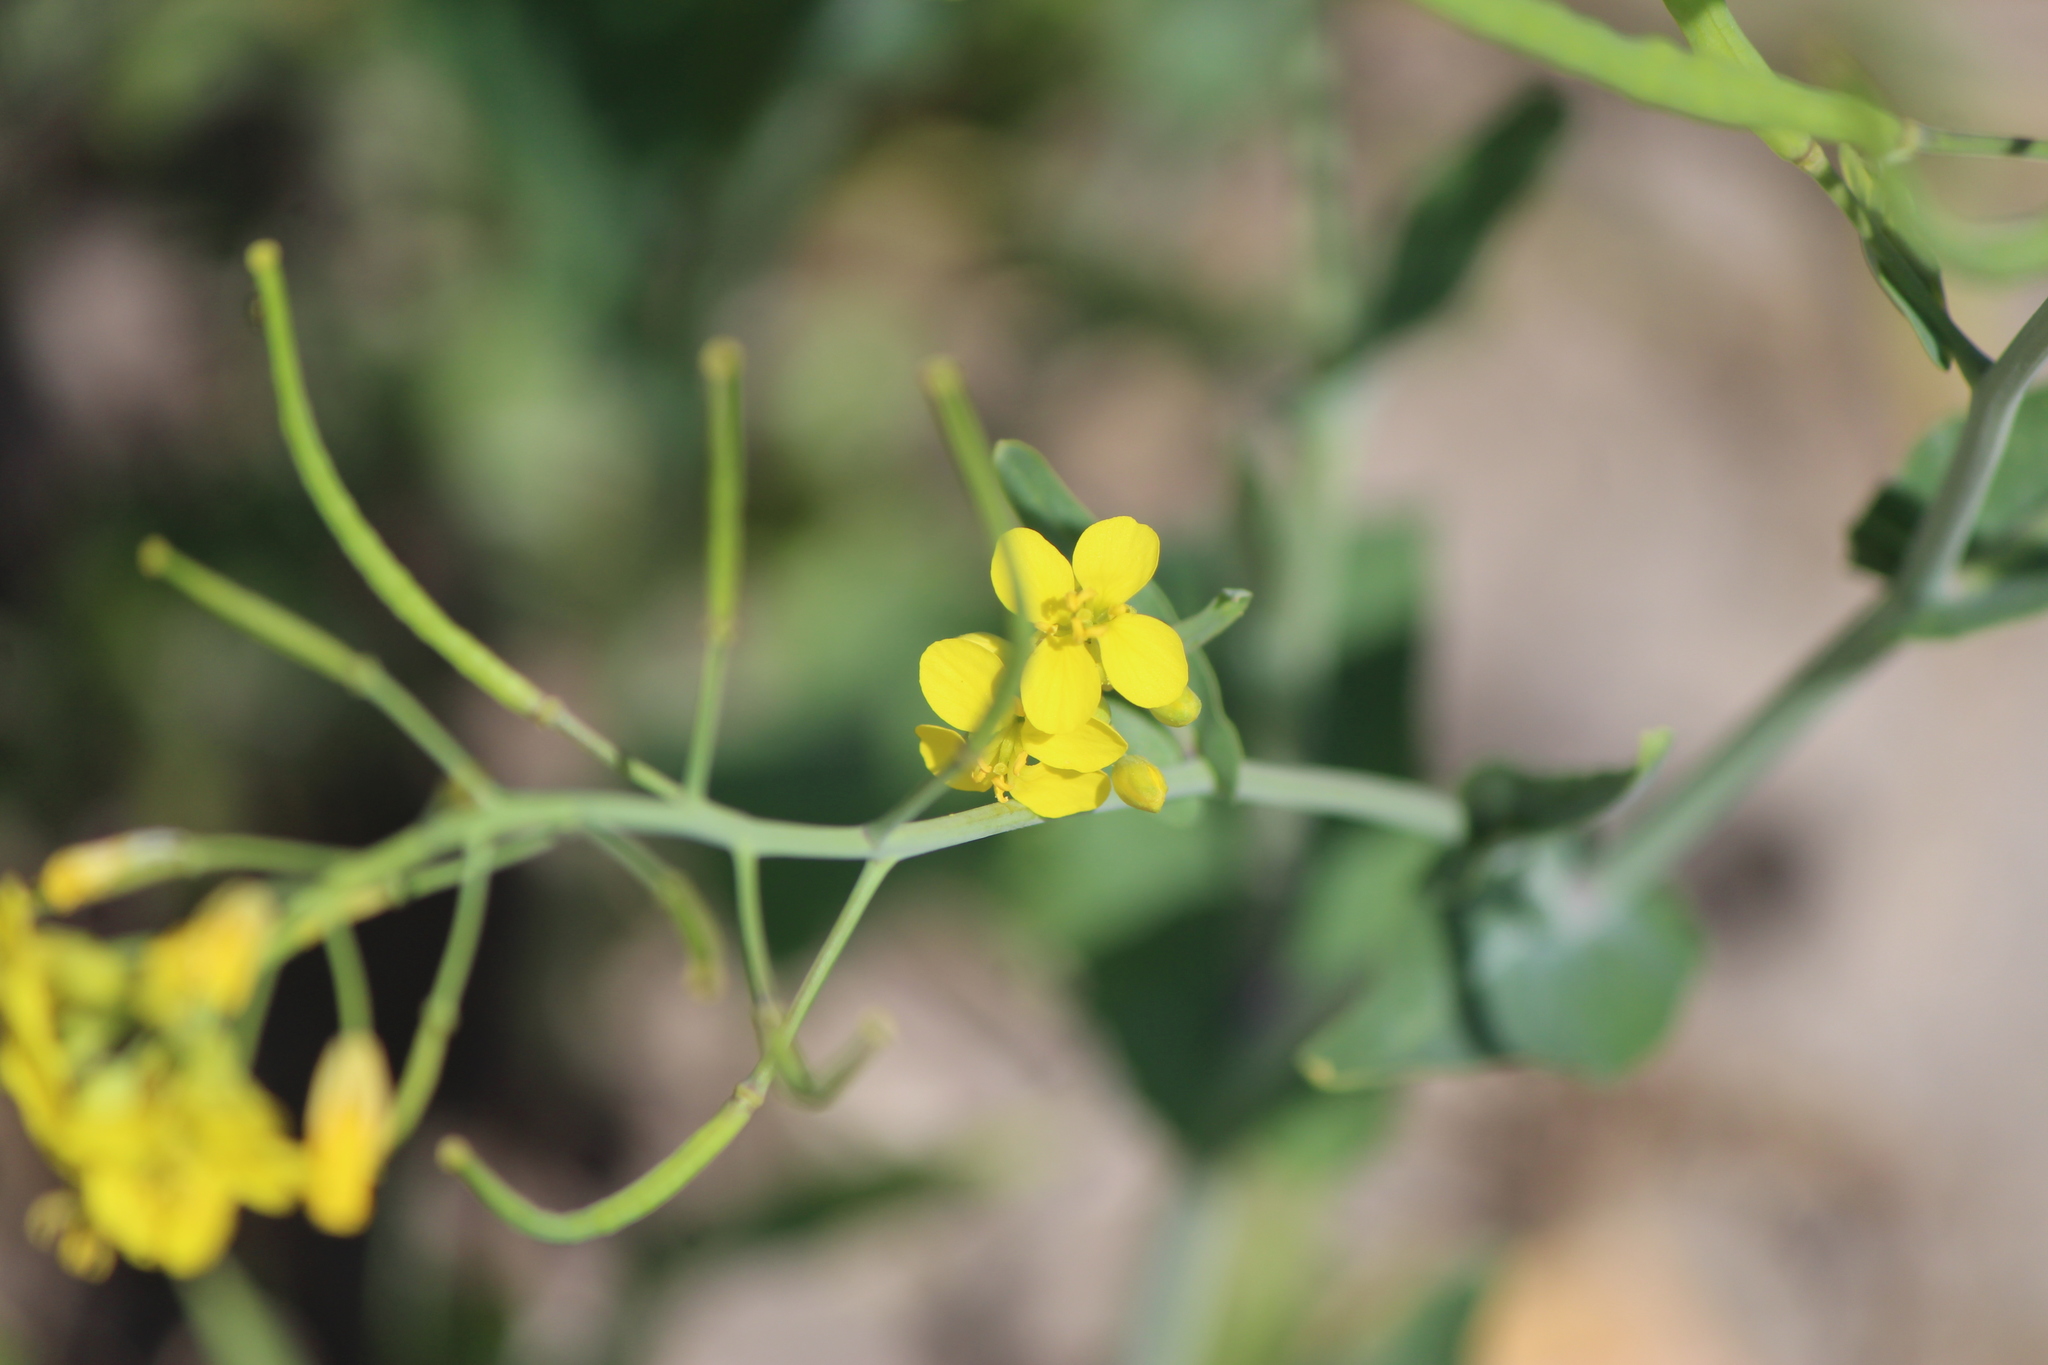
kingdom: Plantae
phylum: Tracheophyta
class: Magnoliopsida
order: Brassicales
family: Brassicaceae
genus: Brassica
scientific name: Brassica rapa
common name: Field mustard
